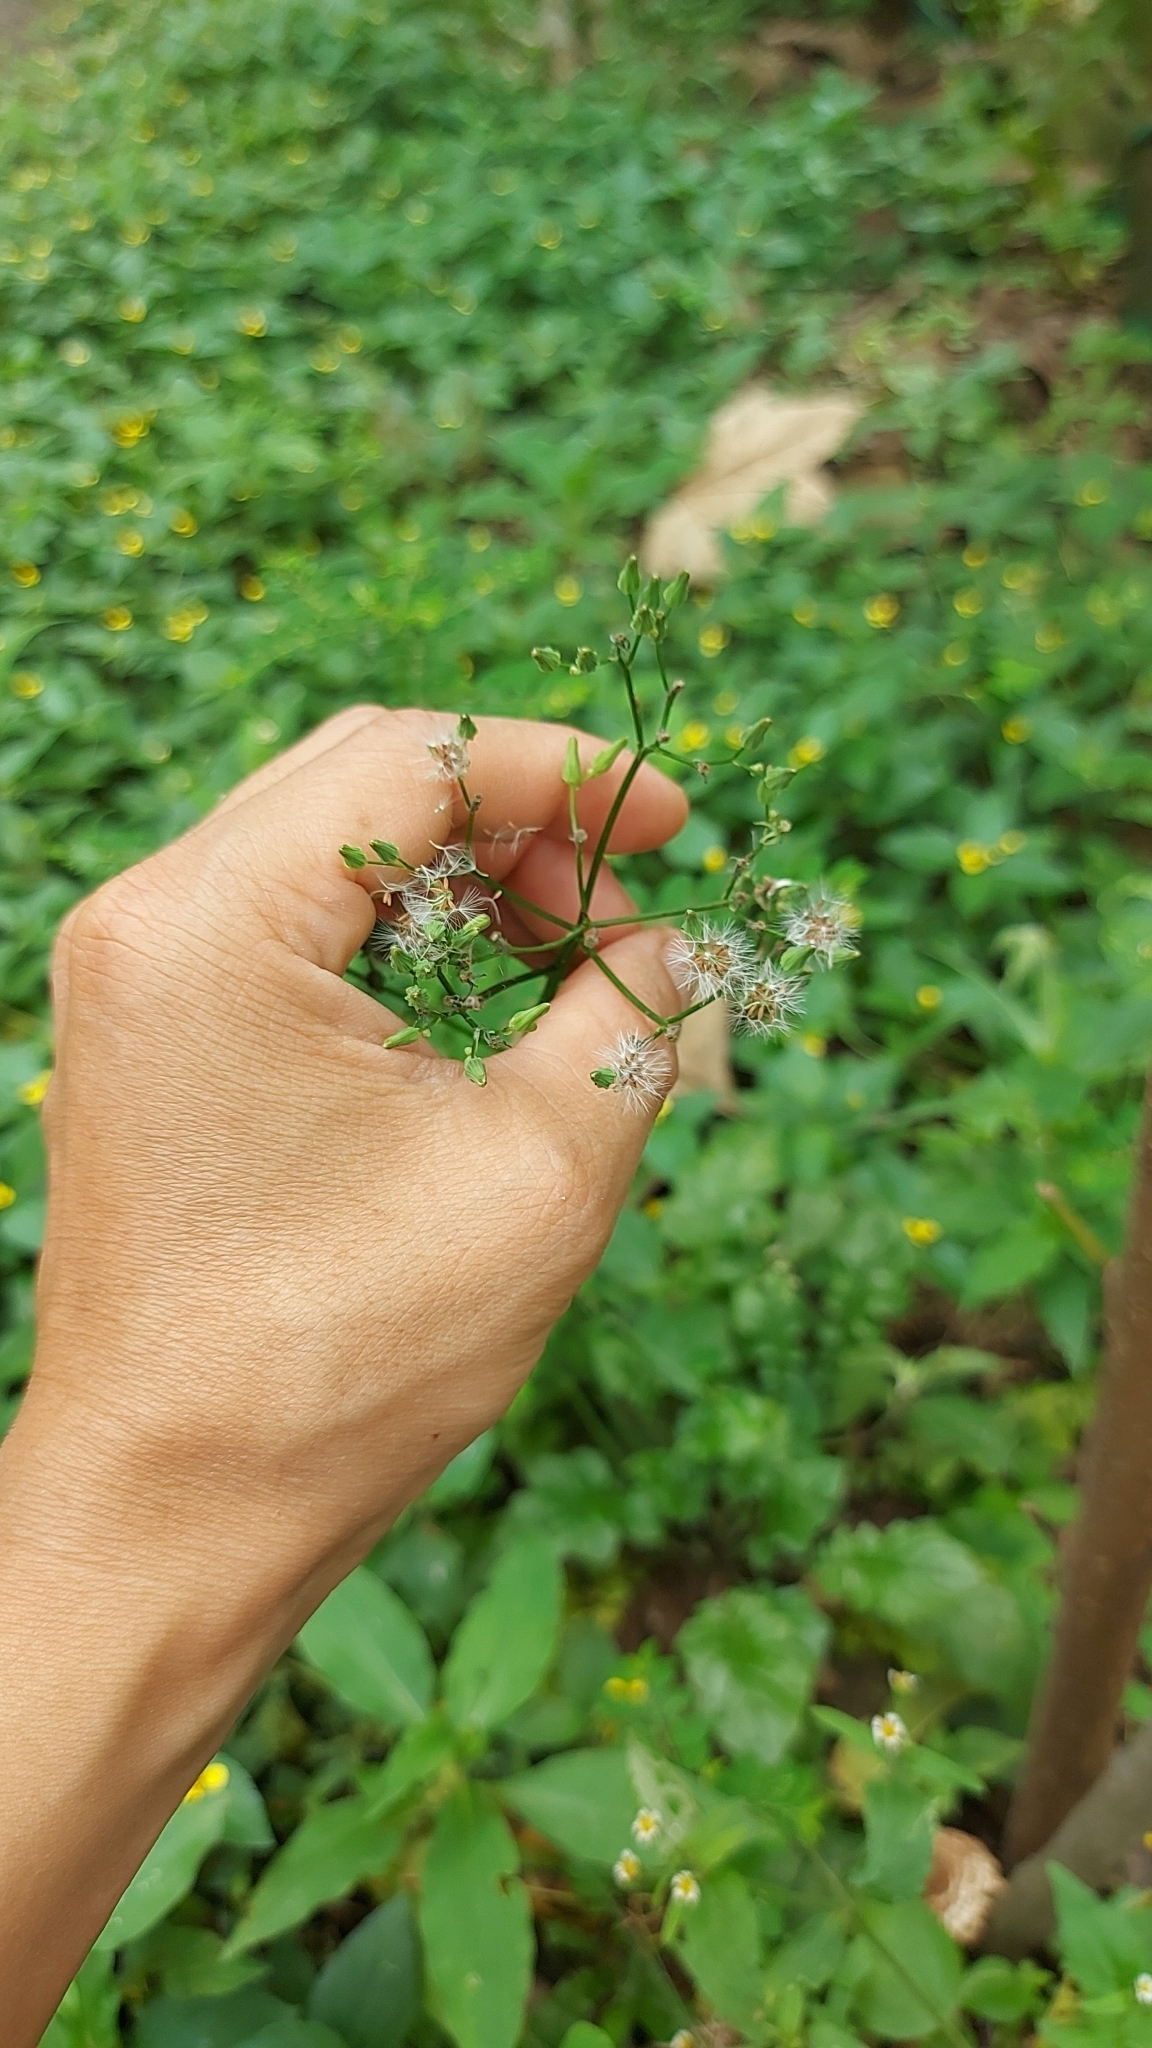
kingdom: Plantae
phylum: Tracheophyta
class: Magnoliopsida
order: Asterales
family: Asteraceae
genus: Youngia
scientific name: Youngia japonica
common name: Oriental false hawksbeard
